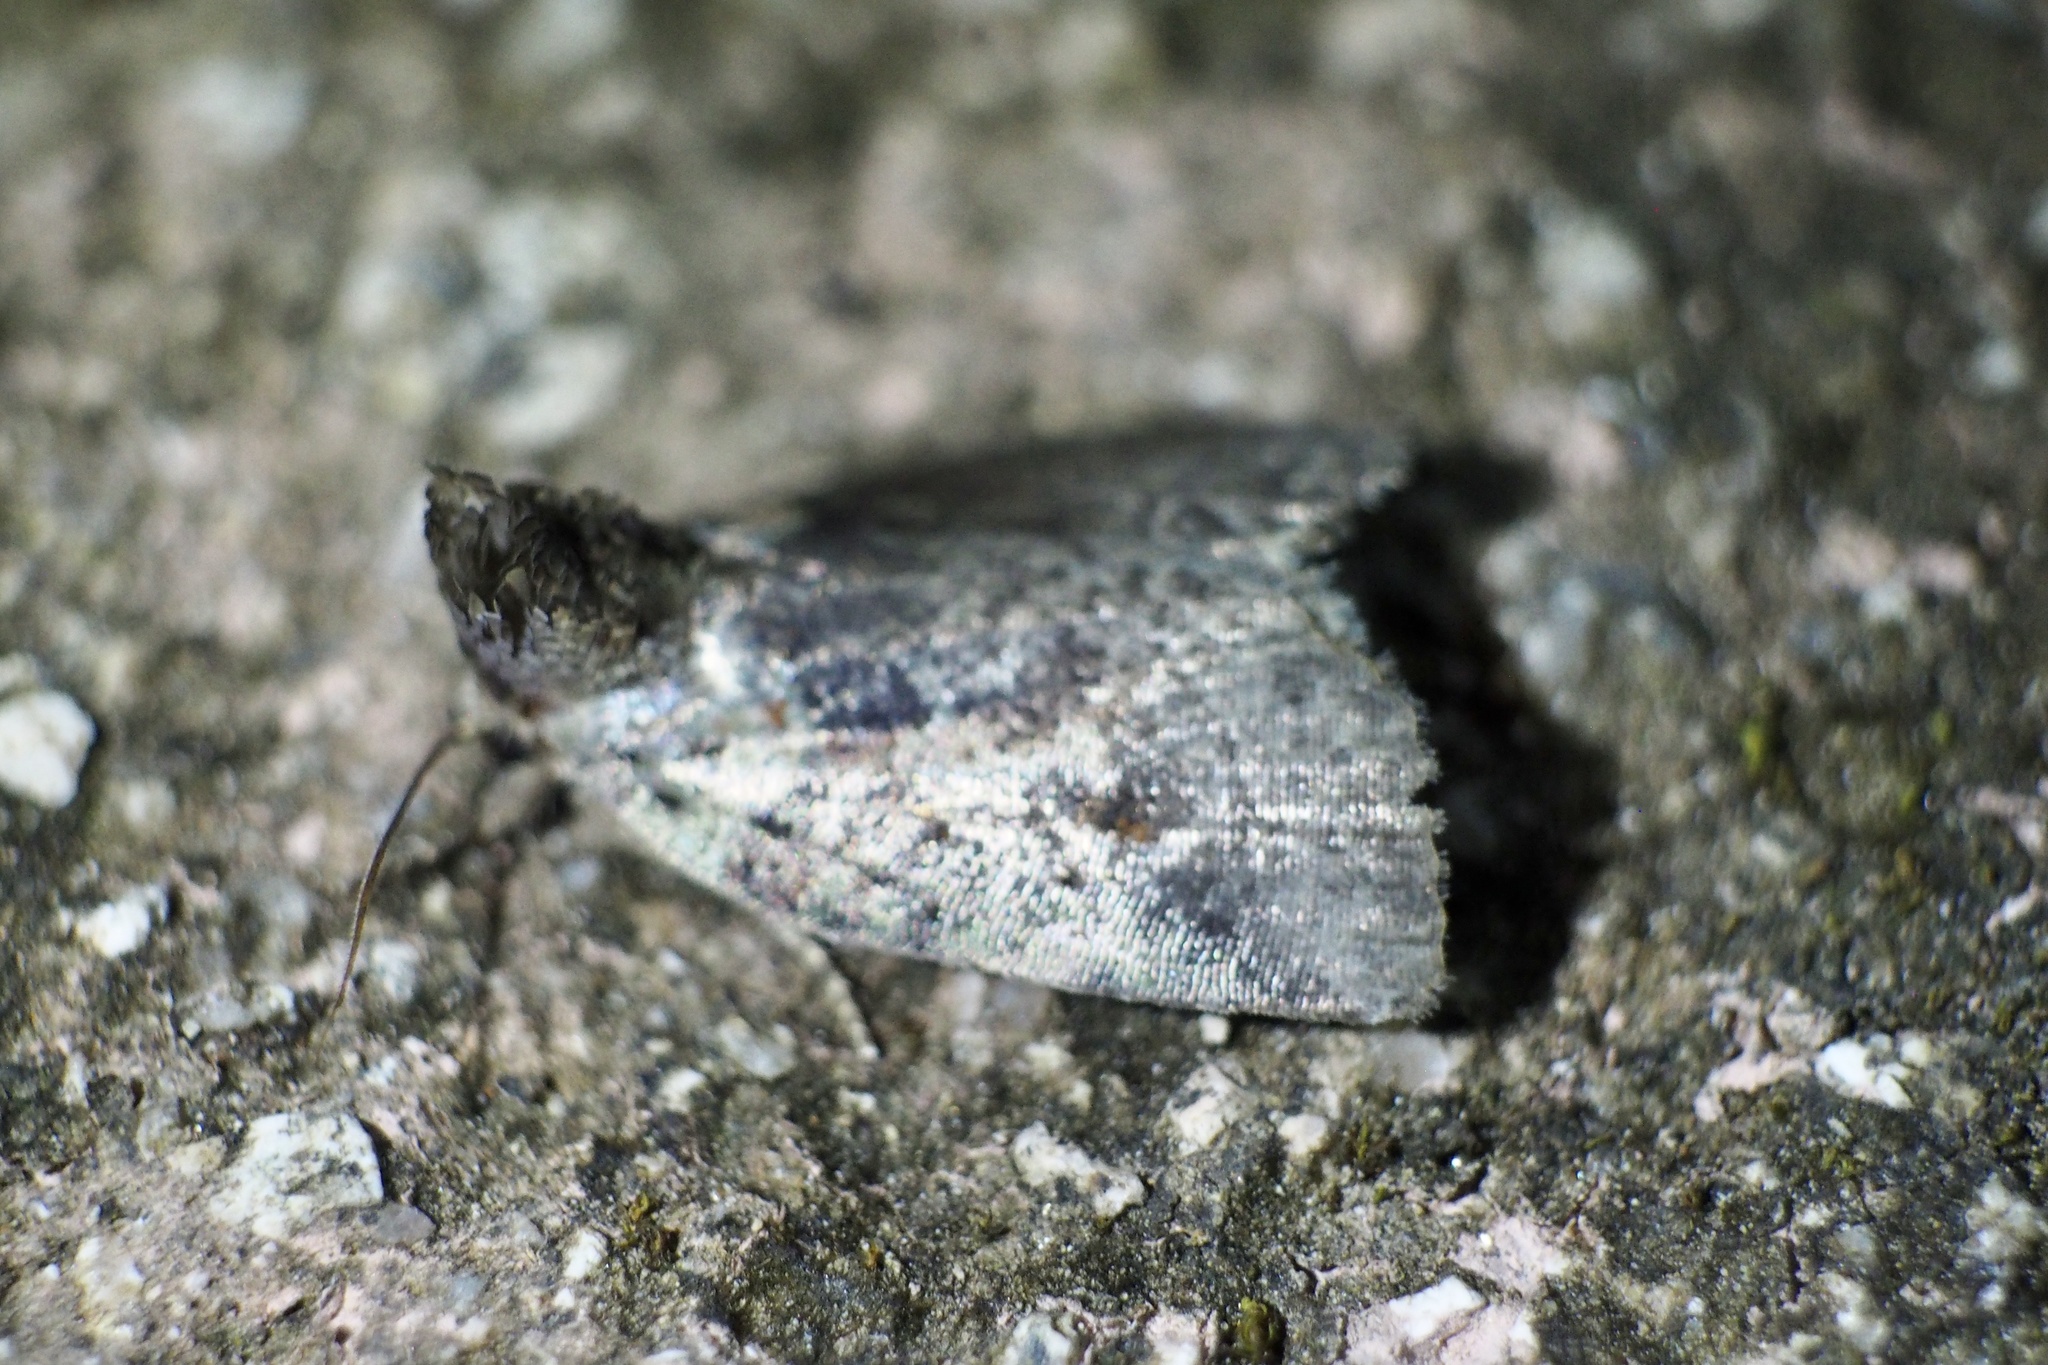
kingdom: Animalia
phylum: Arthropoda
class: Insecta
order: Lepidoptera
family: Noctuidae
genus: Stenoloba
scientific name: Stenoloba manleyi
